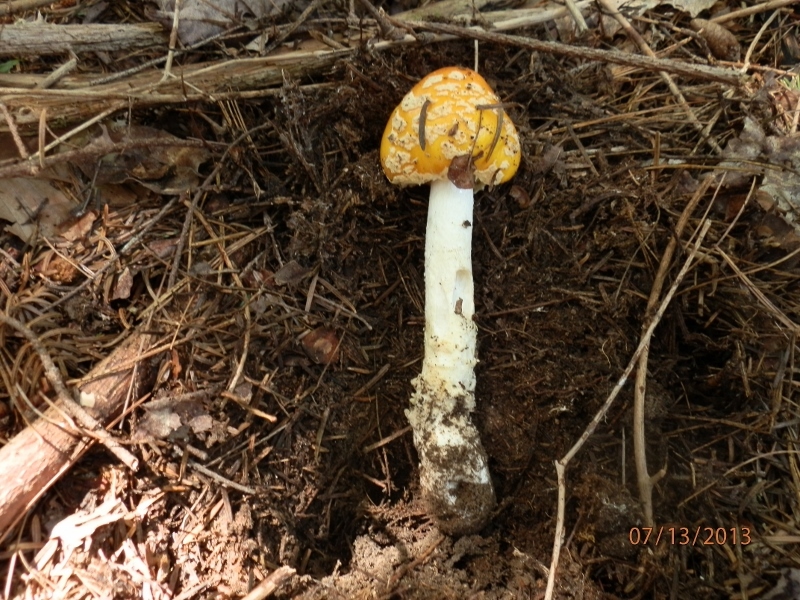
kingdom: Fungi
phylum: Basidiomycota
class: Agaricomycetes
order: Agaricales
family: Amanitaceae
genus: Amanita
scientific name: Amanita muscaria
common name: Fly agaric
